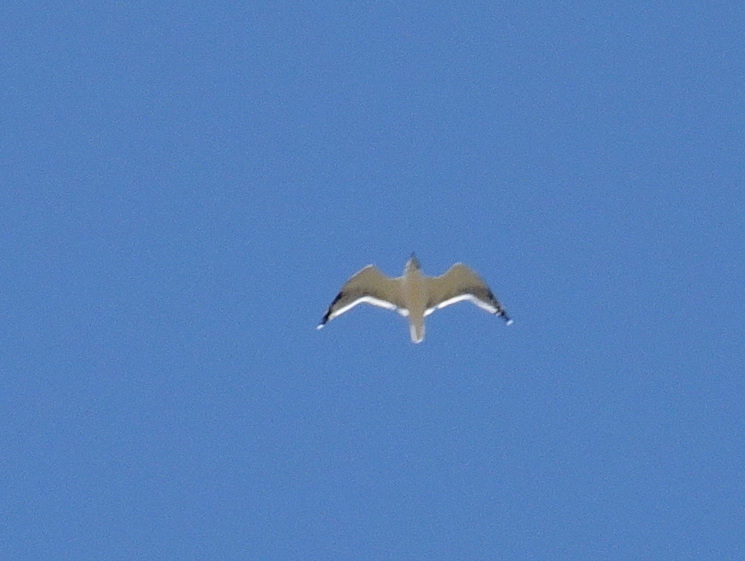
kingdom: Animalia
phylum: Chordata
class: Aves
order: Charadriiformes
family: Laridae
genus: Leucophaeus
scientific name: Leucophaeus pipixcan
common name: Franklin's gull
